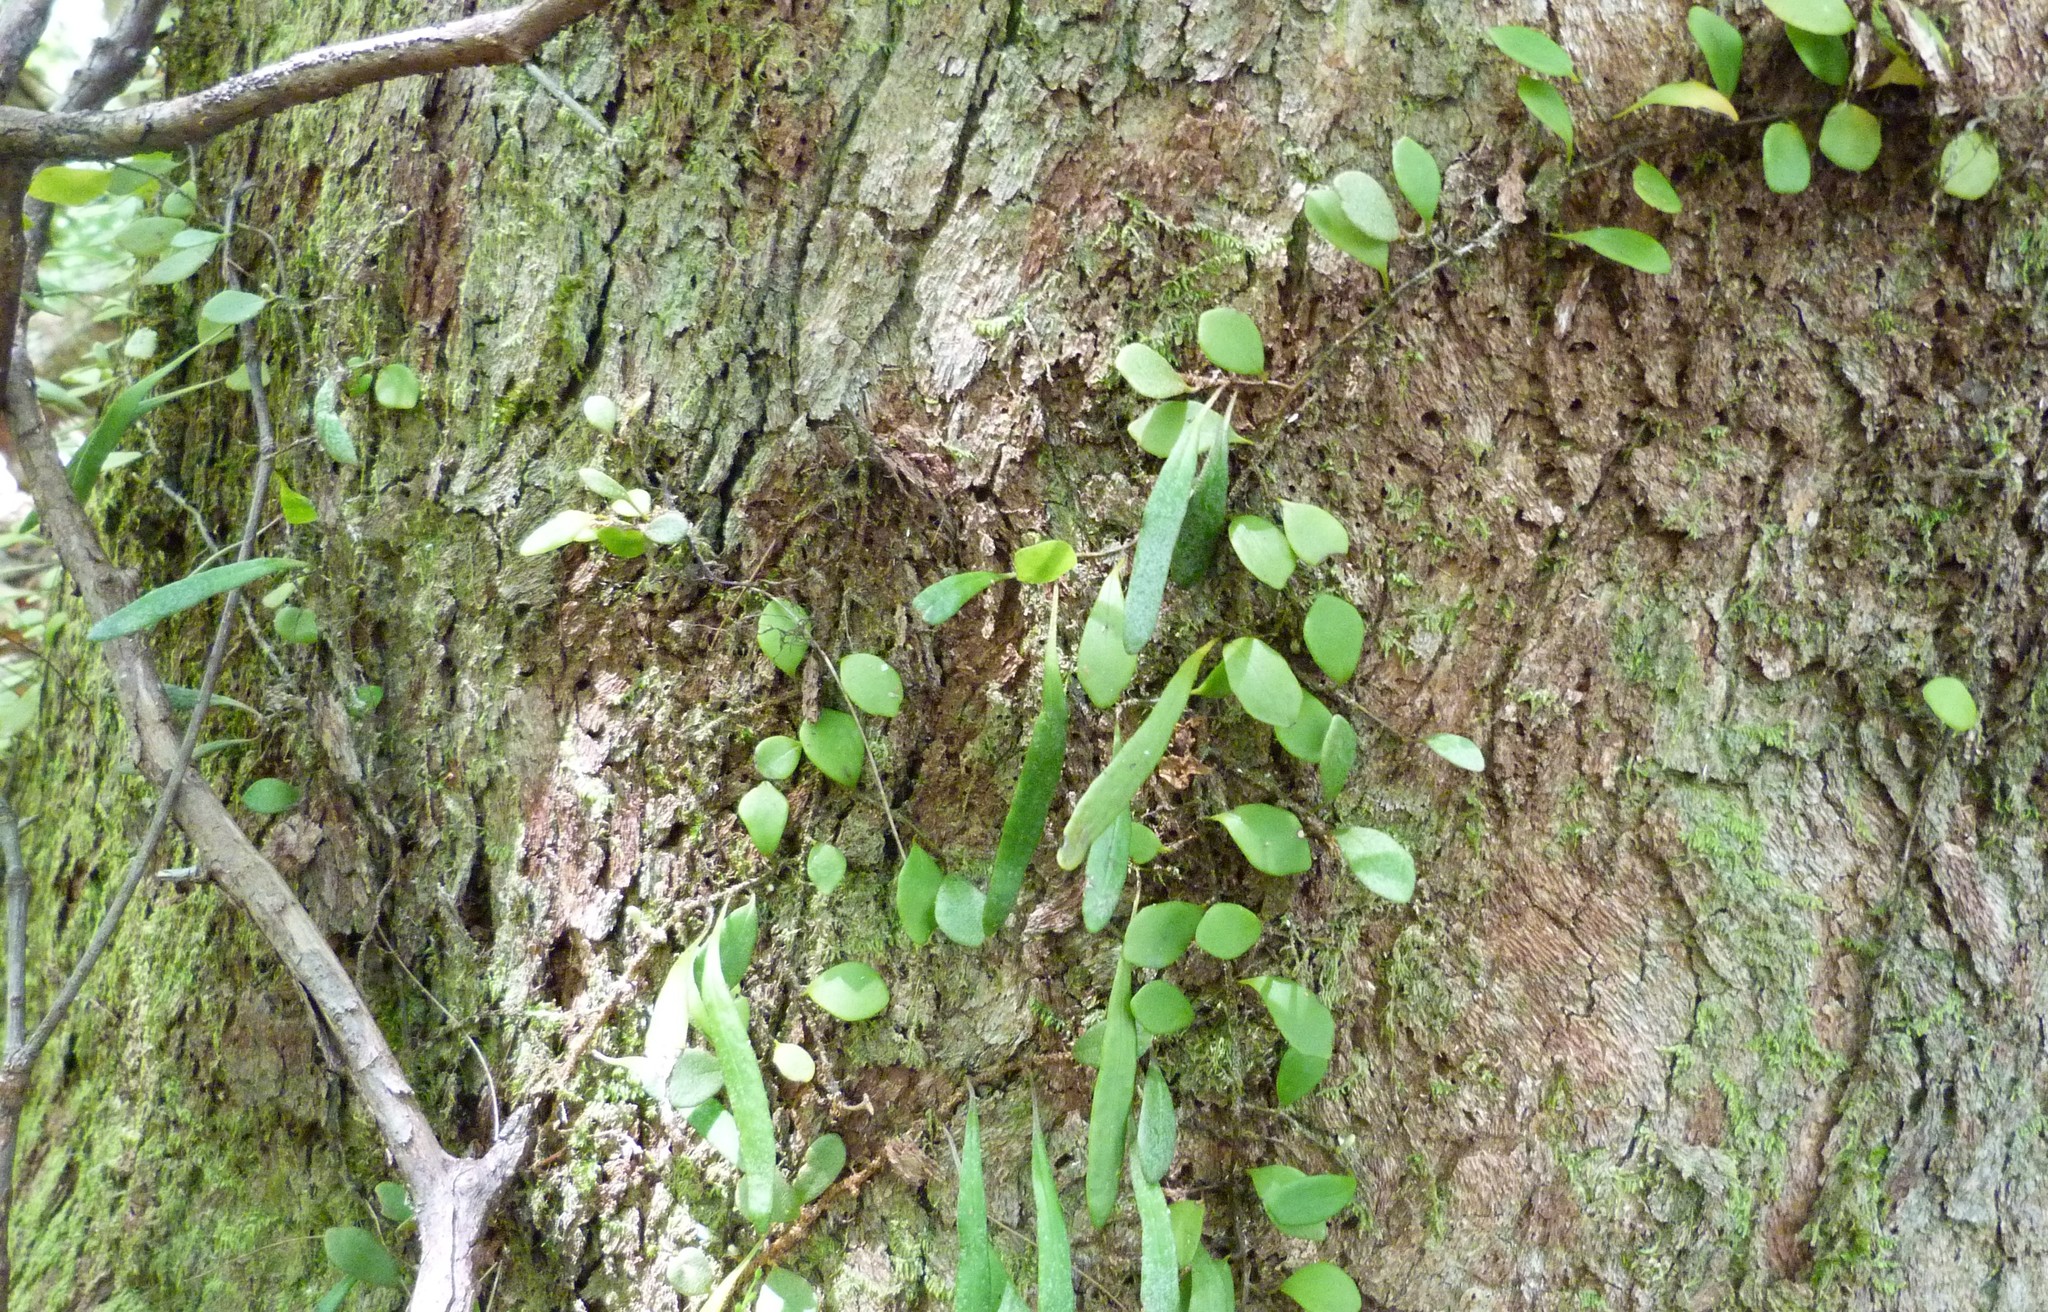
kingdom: Plantae
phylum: Tracheophyta
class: Polypodiopsida
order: Polypodiales
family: Polypodiaceae
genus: Pyrrosia
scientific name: Pyrrosia rupestris
